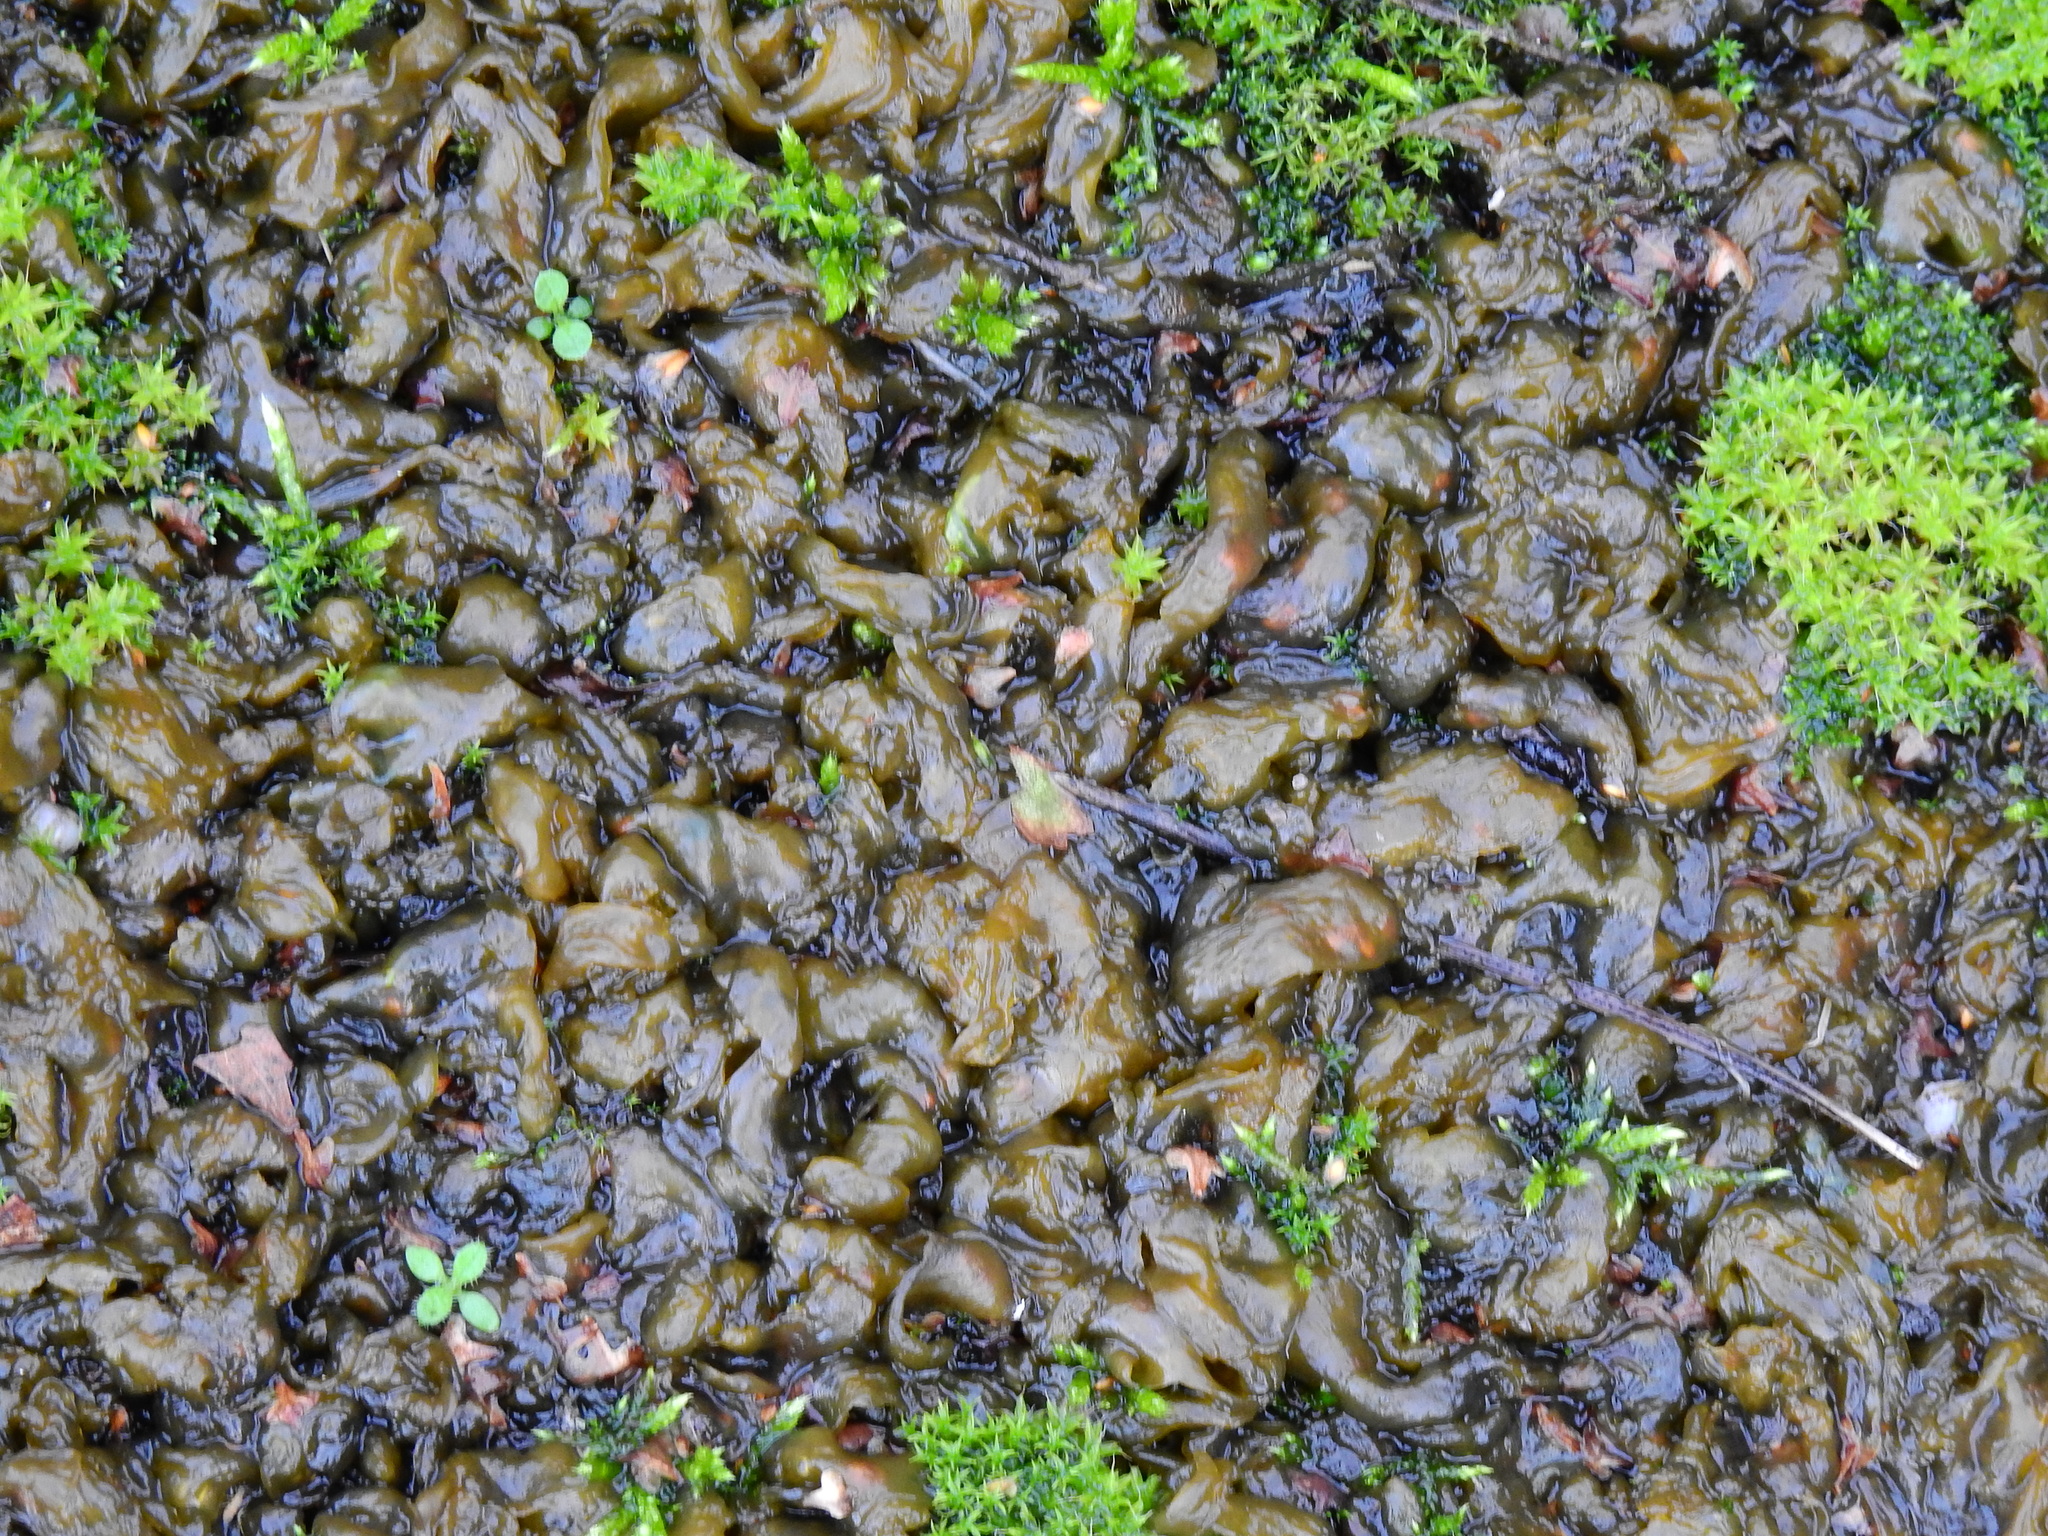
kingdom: Bacteria
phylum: Cyanobacteria
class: Cyanobacteriia
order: Cyanobacteriales
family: Nostocaceae
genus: Nostoc
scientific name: Nostoc commune
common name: Star jelly
